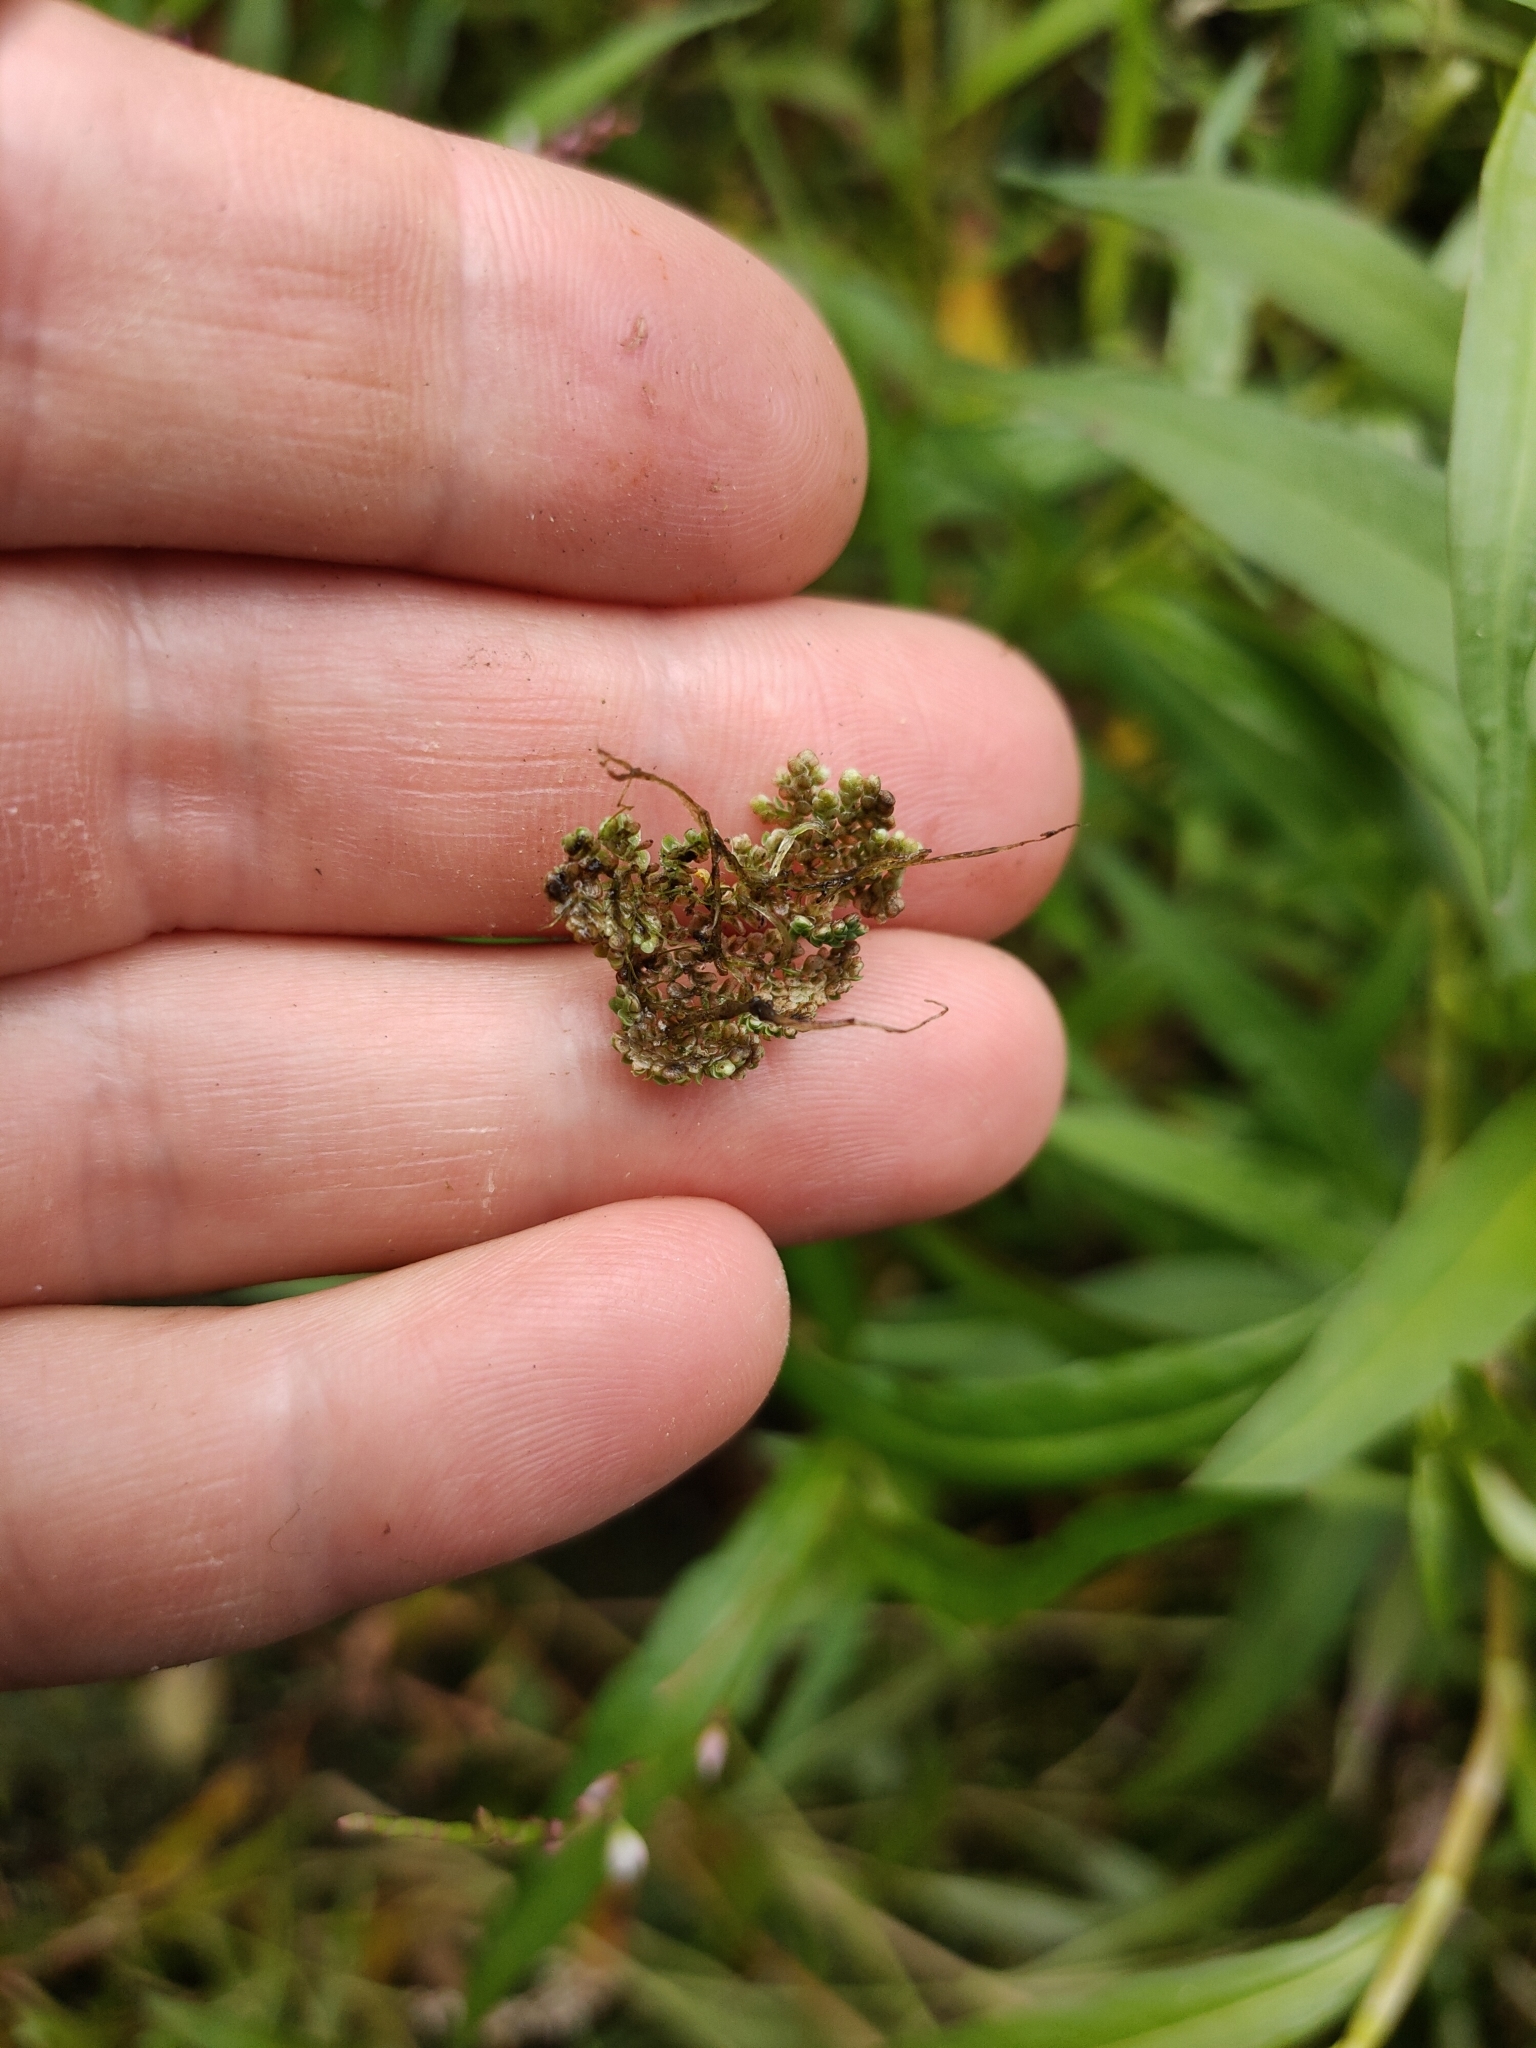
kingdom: Plantae
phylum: Tracheophyta
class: Polypodiopsida
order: Salviniales
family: Salviniaceae
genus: Azolla
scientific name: Azolla pinnata
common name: Ferny azolla
